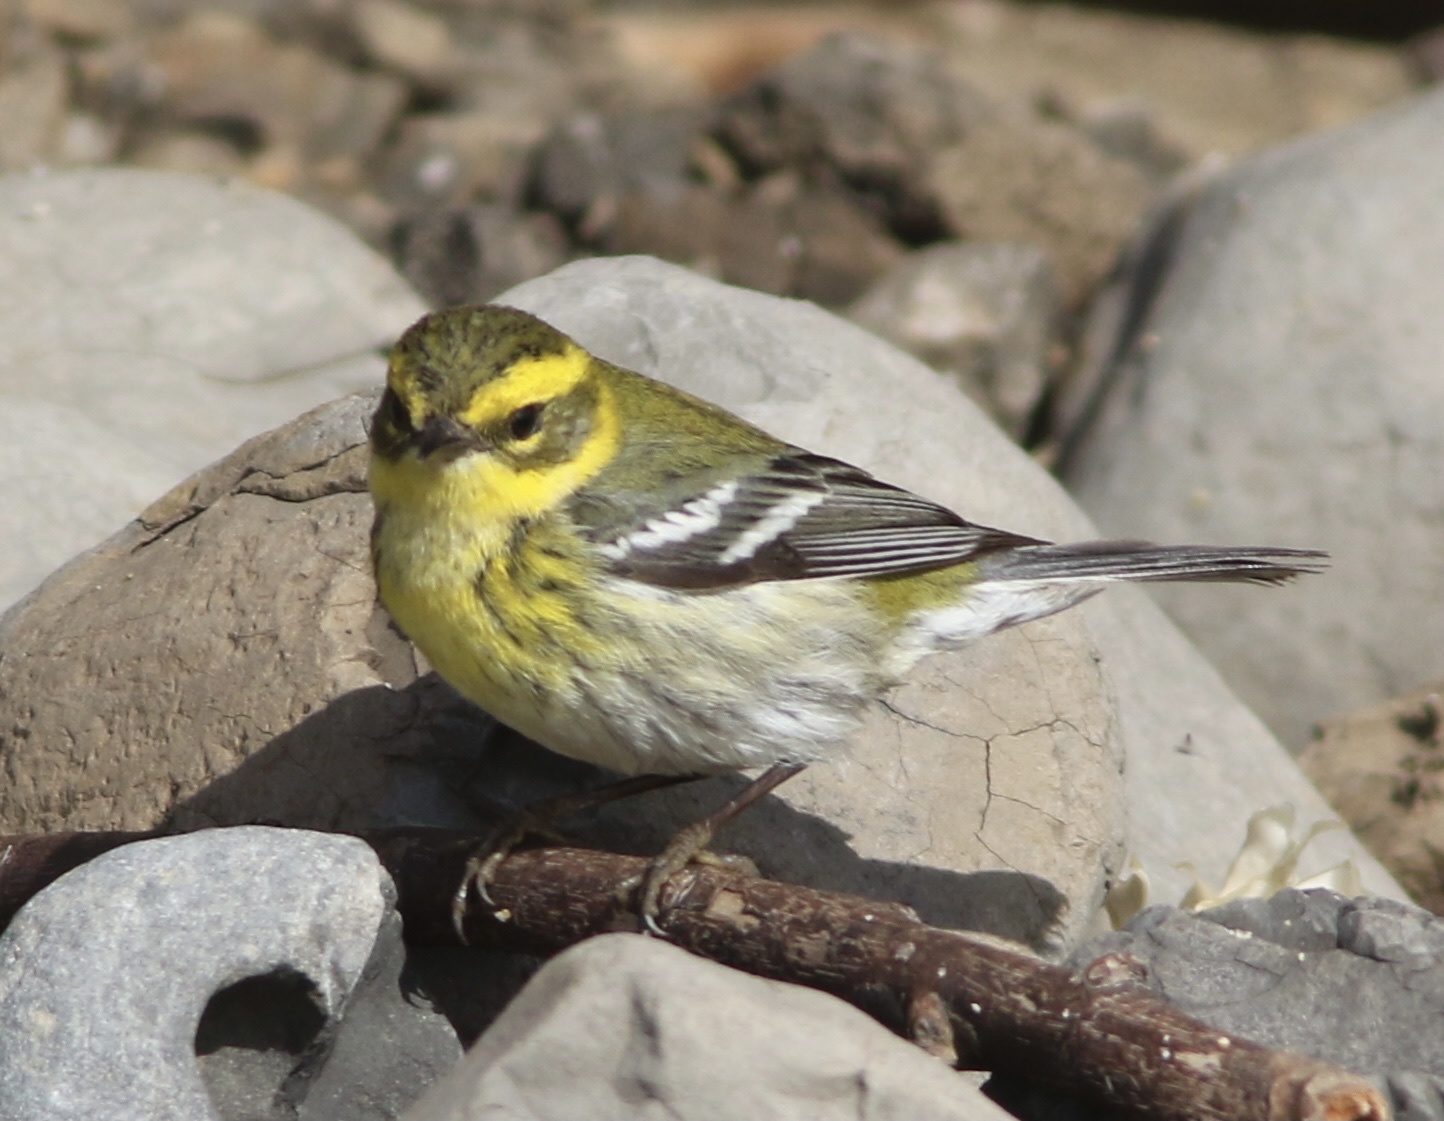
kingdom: Animalia
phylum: Chordata
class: Aves
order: Passeriformes
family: Parulidae
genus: Setophaga
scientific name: Setophaga townsendi
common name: Townsend's warbler
